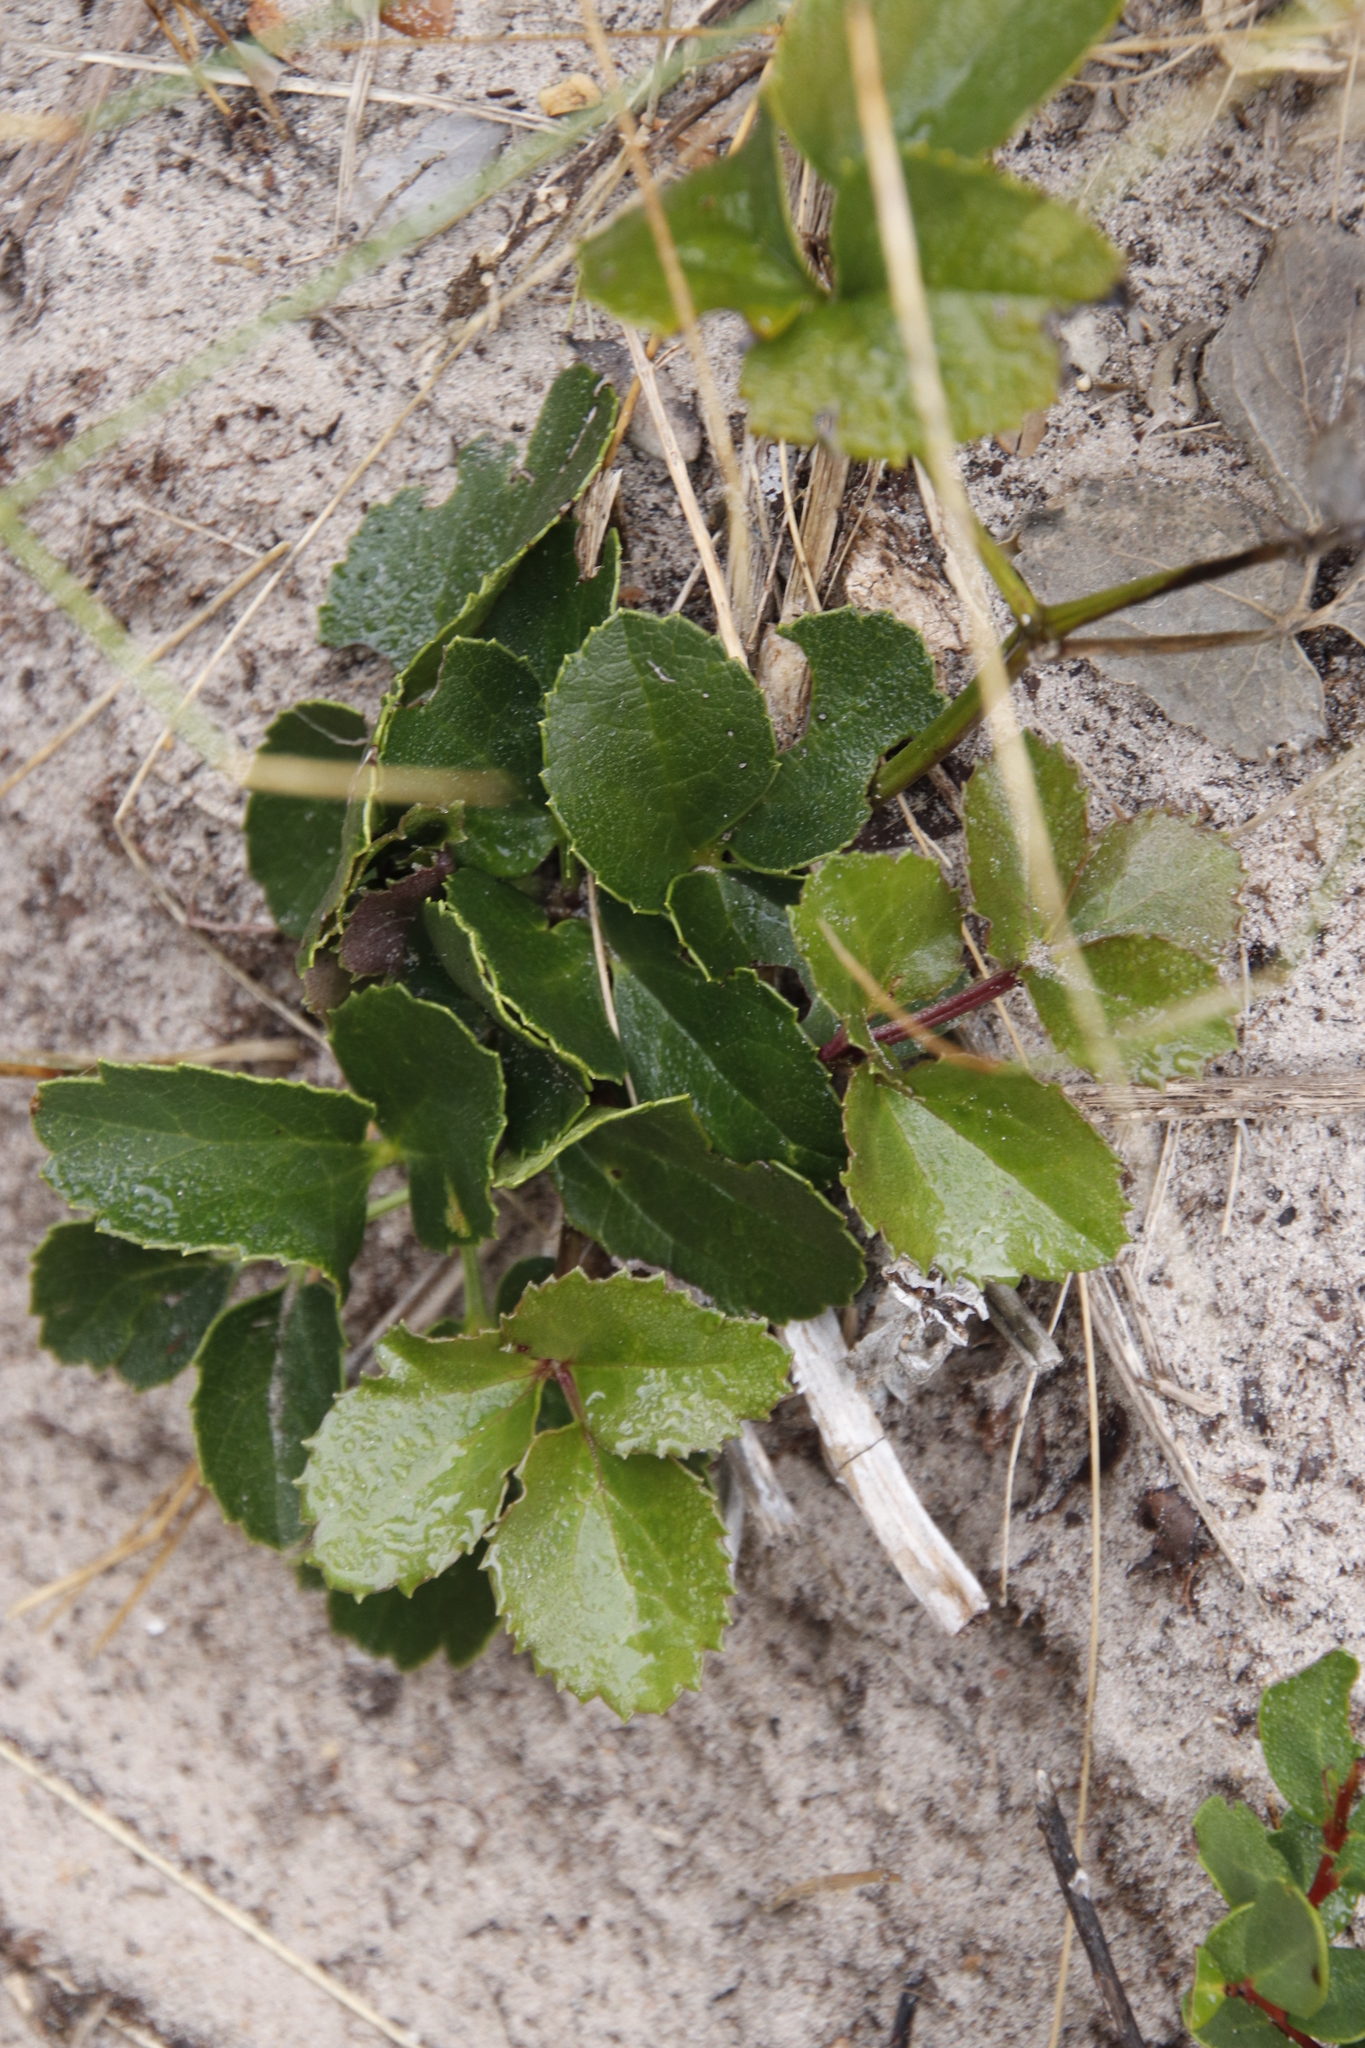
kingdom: Plantae
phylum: Tracheophyta
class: Magnoliopsida
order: Ranunculales
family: Ranunculaceae
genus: Knowltonia
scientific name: Knowltonia vesicatoria
